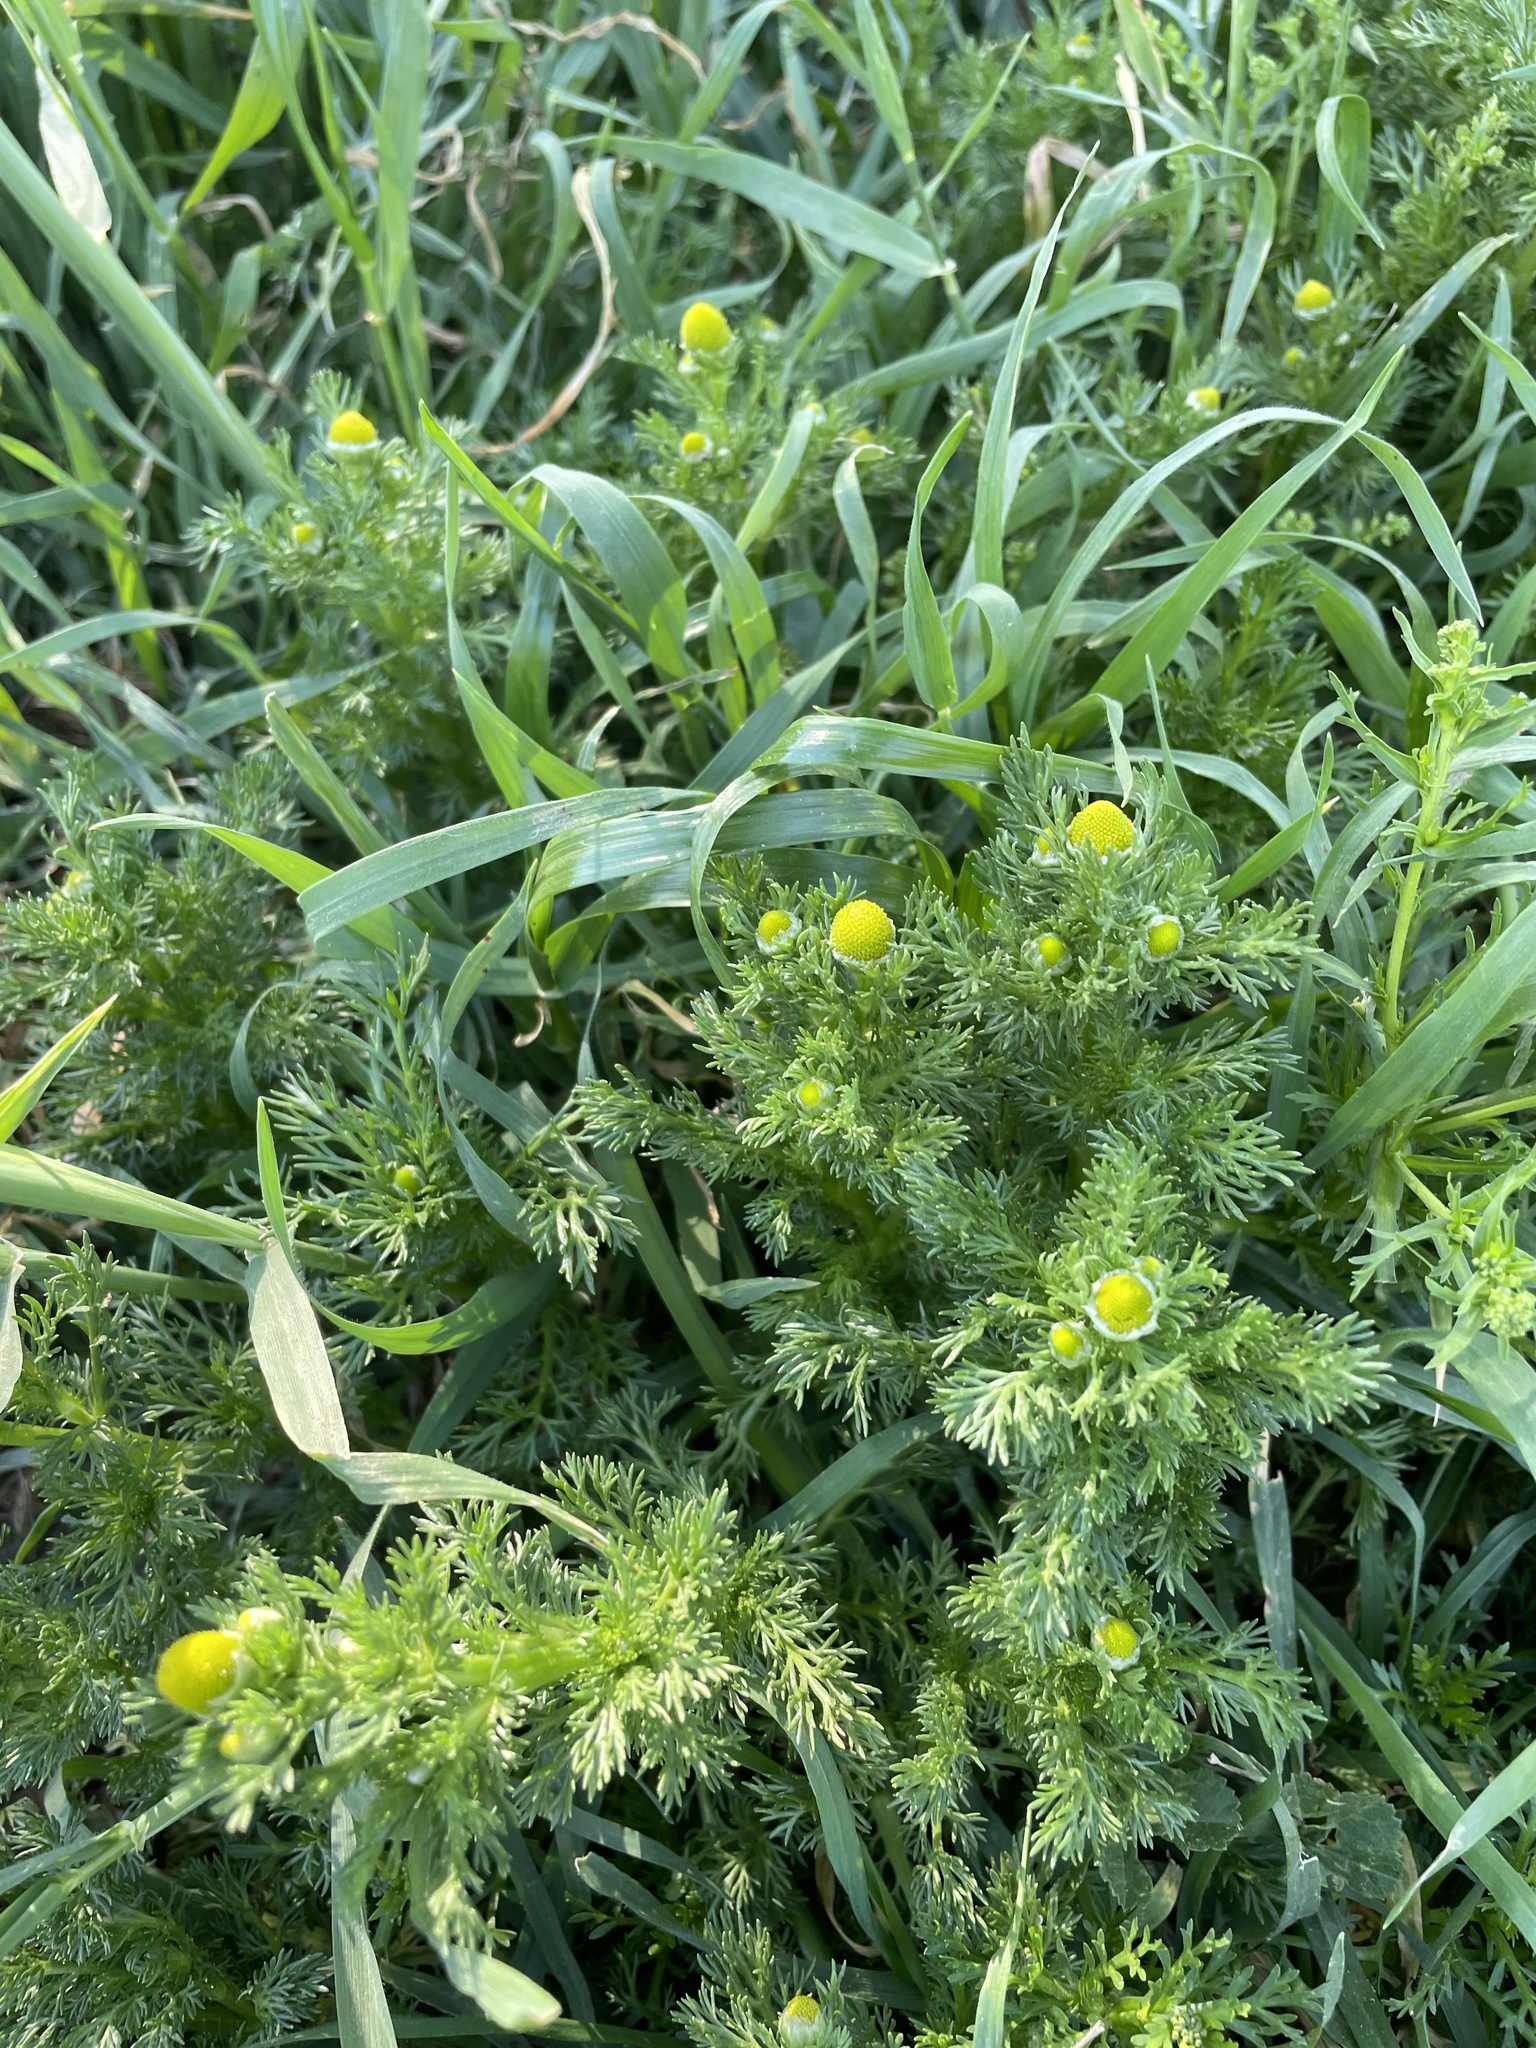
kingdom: Plantae
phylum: Tracheophyta
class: Magnoliopsida
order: Asterales
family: Asteraceae
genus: Matricaria
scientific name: Matricaria discoidea
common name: Disc mayweed
